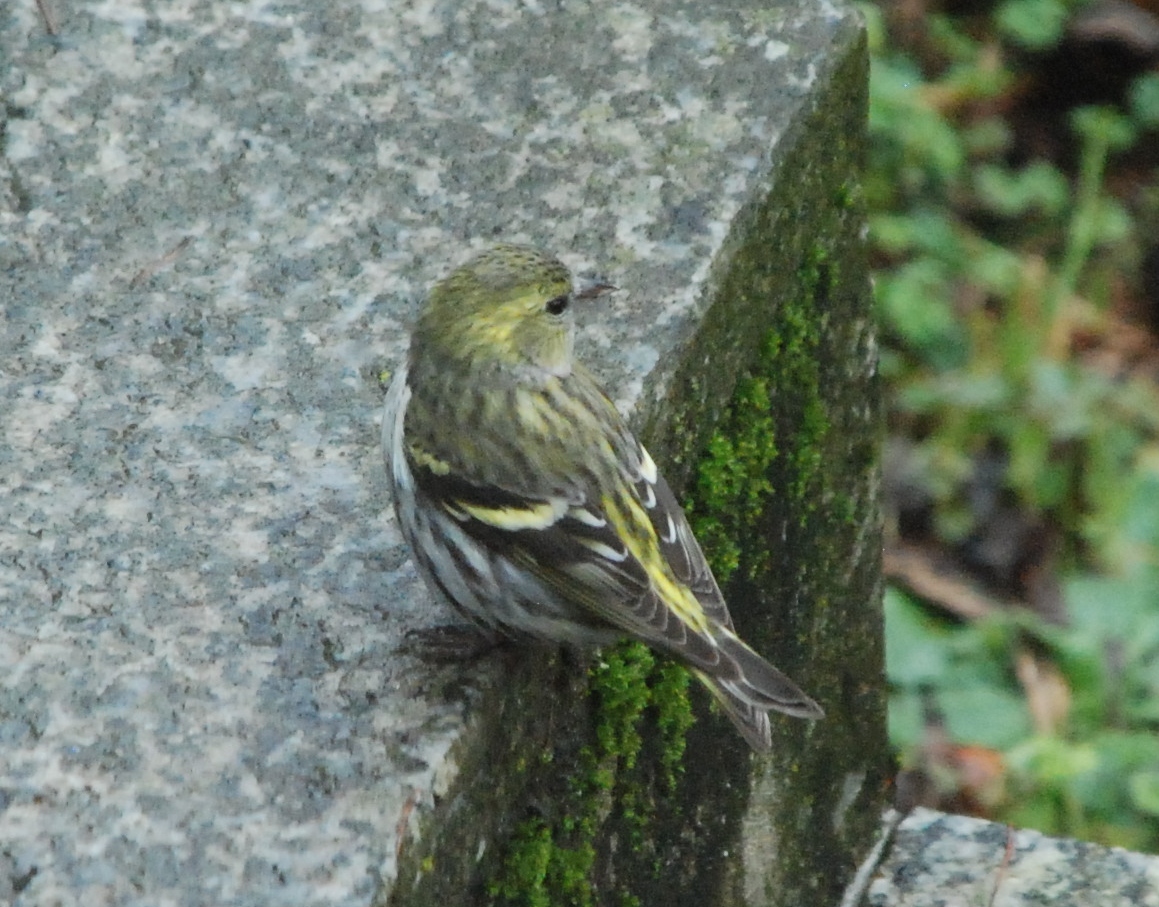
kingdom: Animalia
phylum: Chordata
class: Aves
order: Passeriformes
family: Fringillidae
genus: Spinus
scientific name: Spinus spinus
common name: Eurasian siskin
